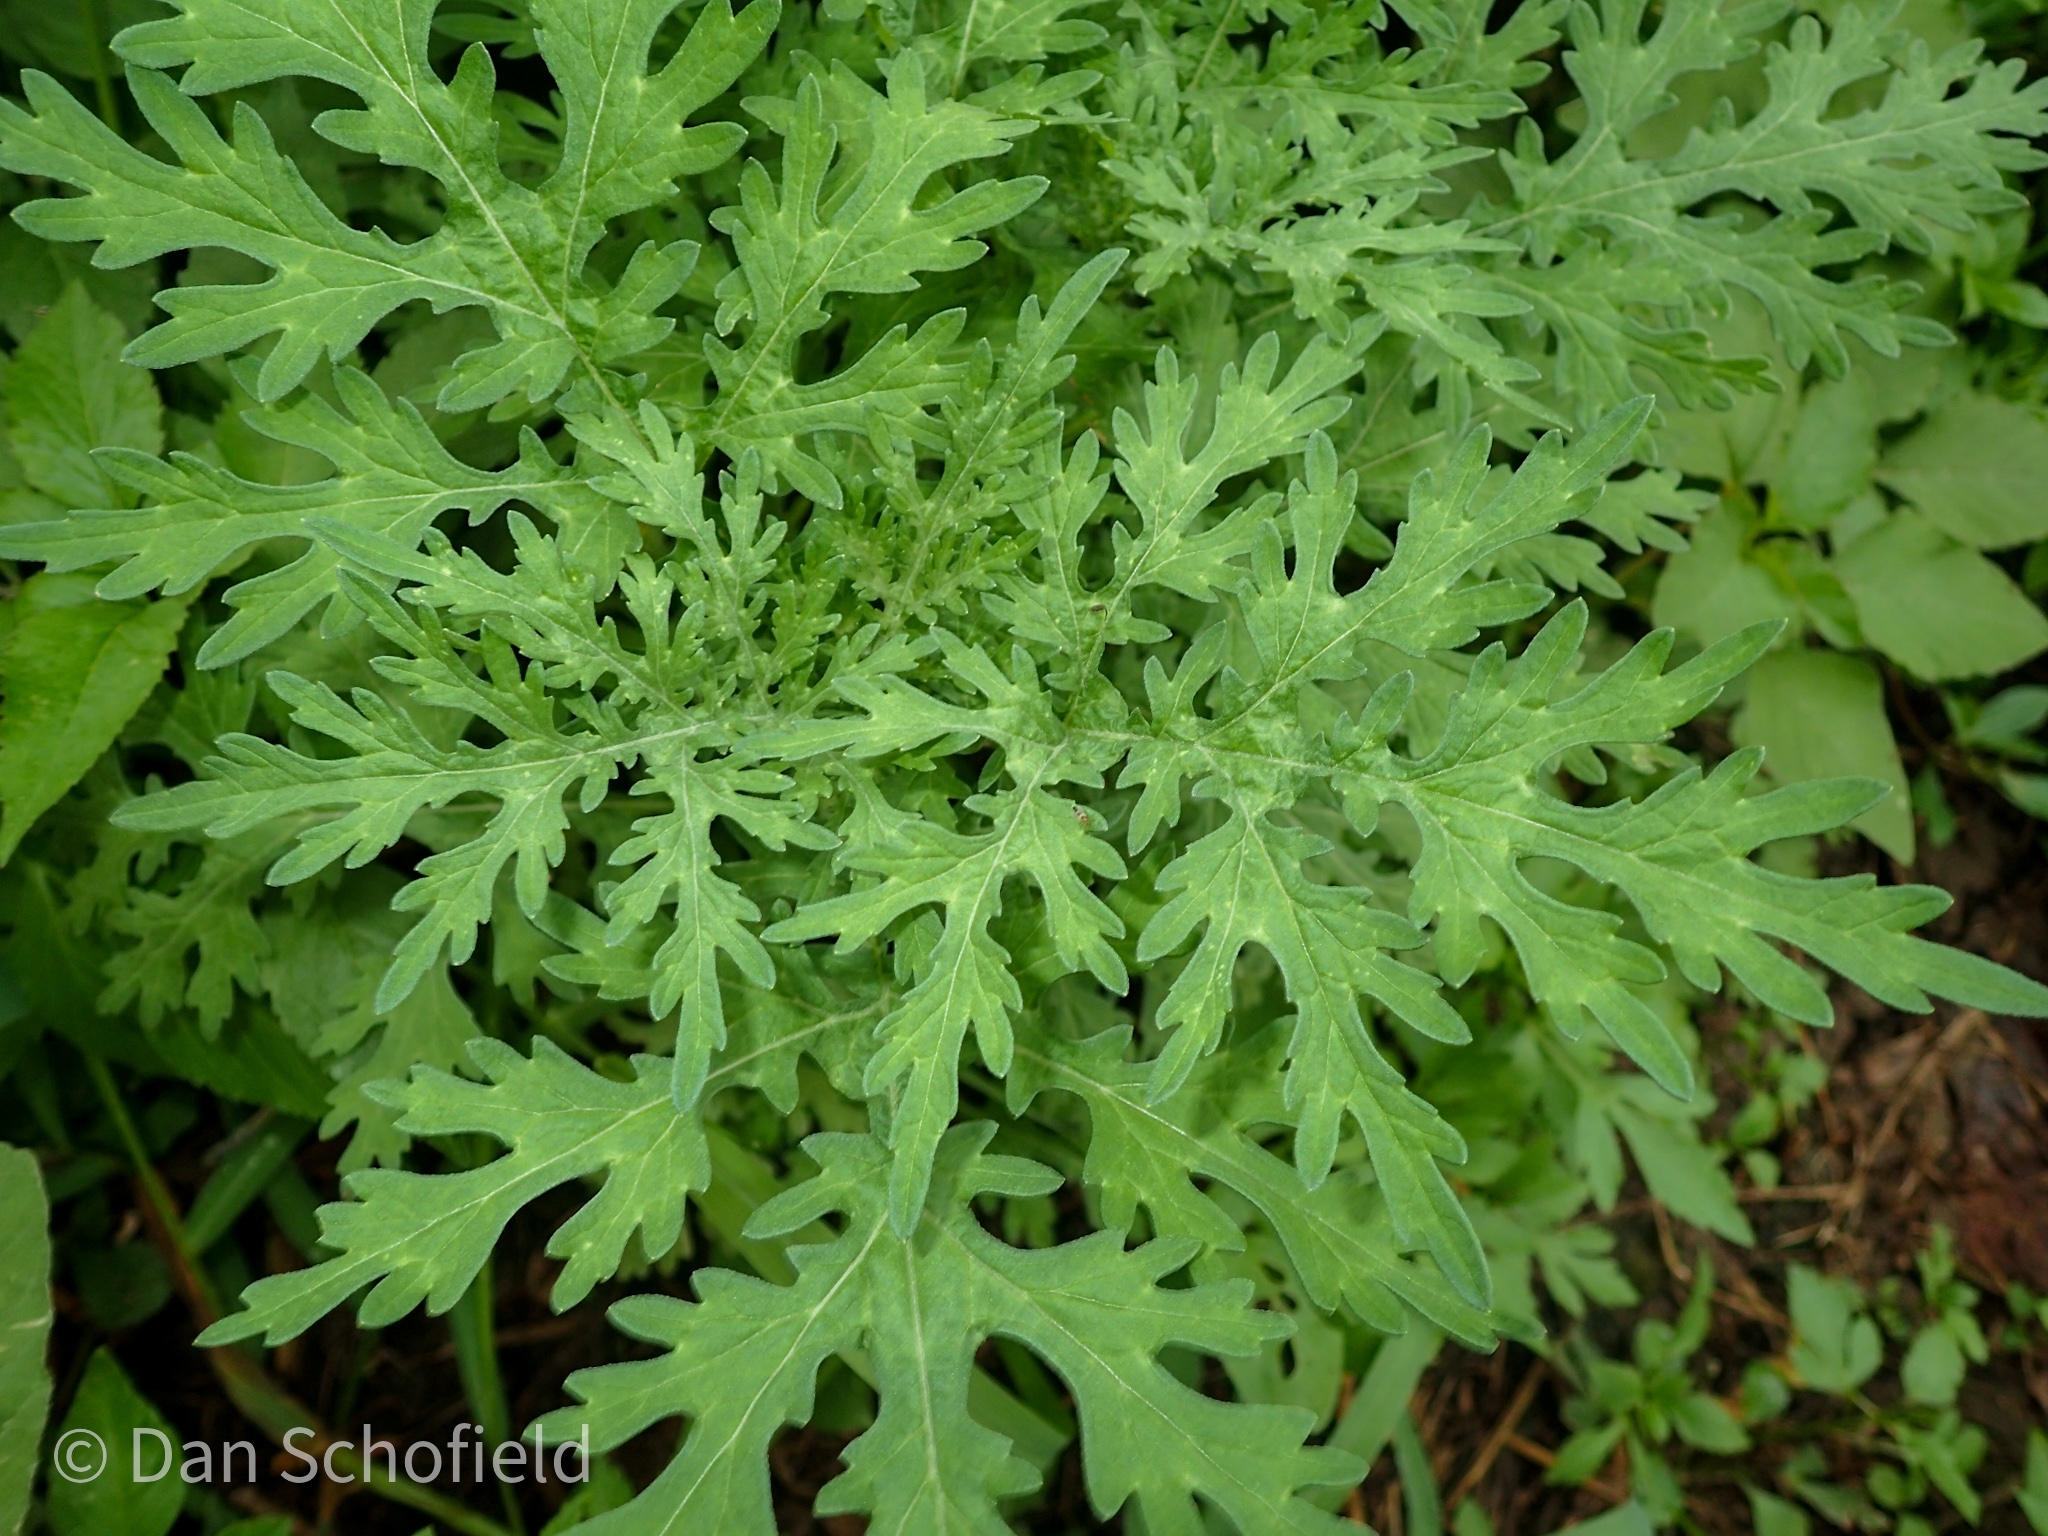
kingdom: Plantae
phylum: Tracheophyta
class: Magnoliopsida
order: Asterales
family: Asteraceae
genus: Parthenium
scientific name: Parthenium hysterophorus
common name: Santa maria feverfew
